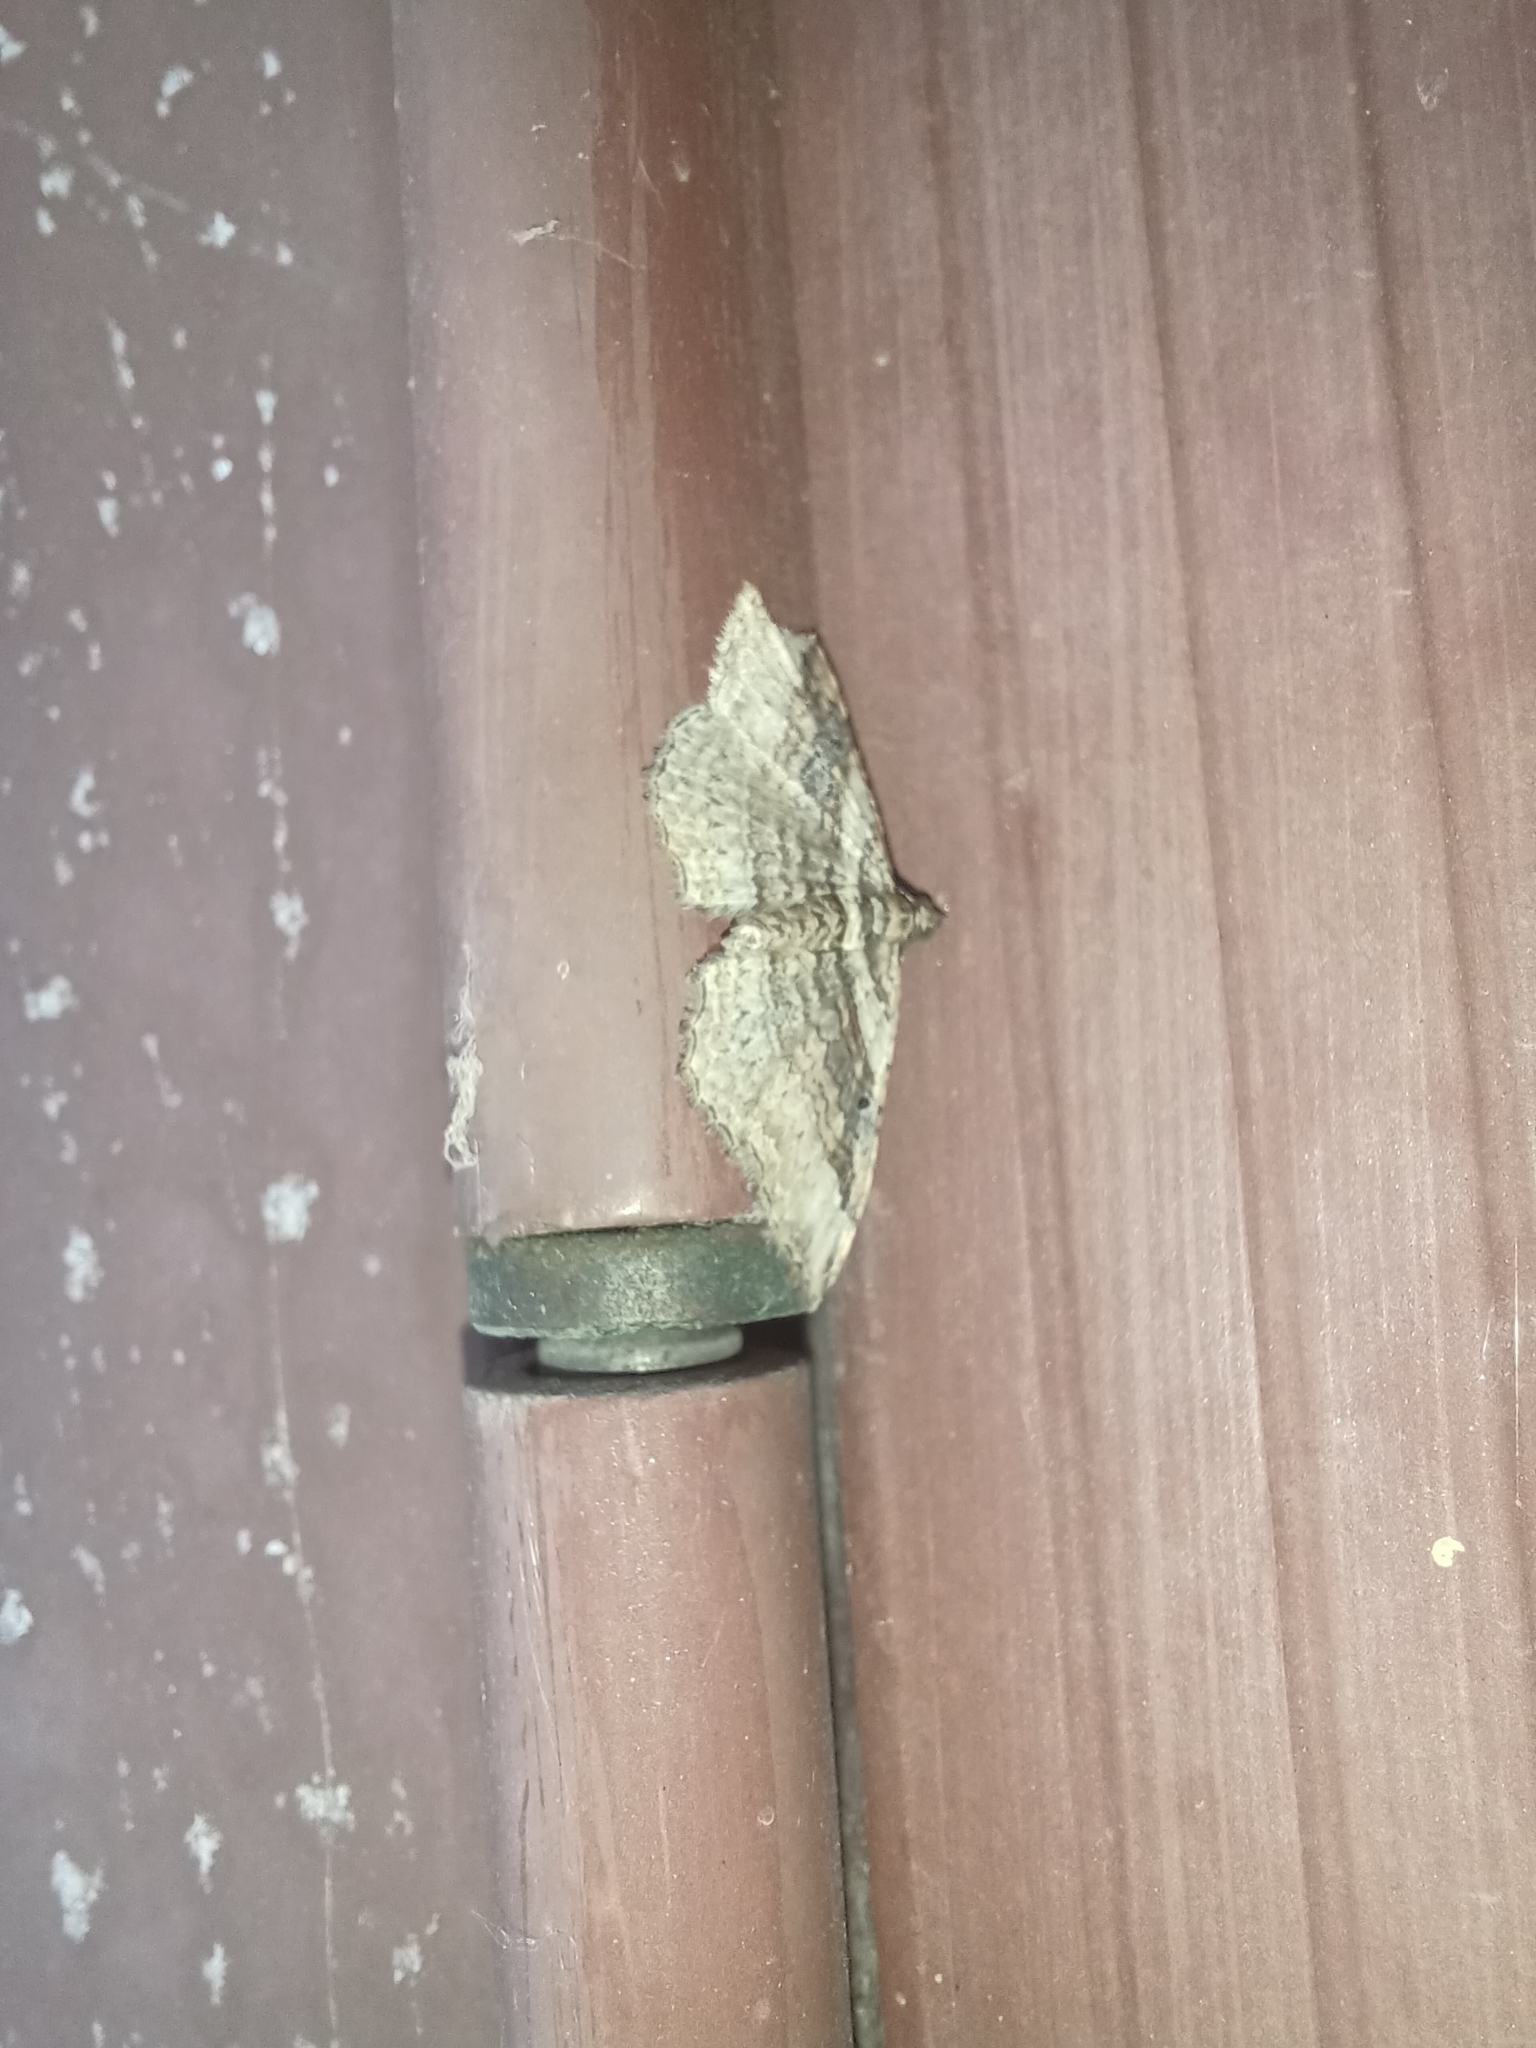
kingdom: Animalia
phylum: Arthropoda
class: Insecta
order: Lepidoptera
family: Geometridae
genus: Costaconvexa
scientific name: Costaconvexa centrostrigaria
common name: Bent-line carpet
